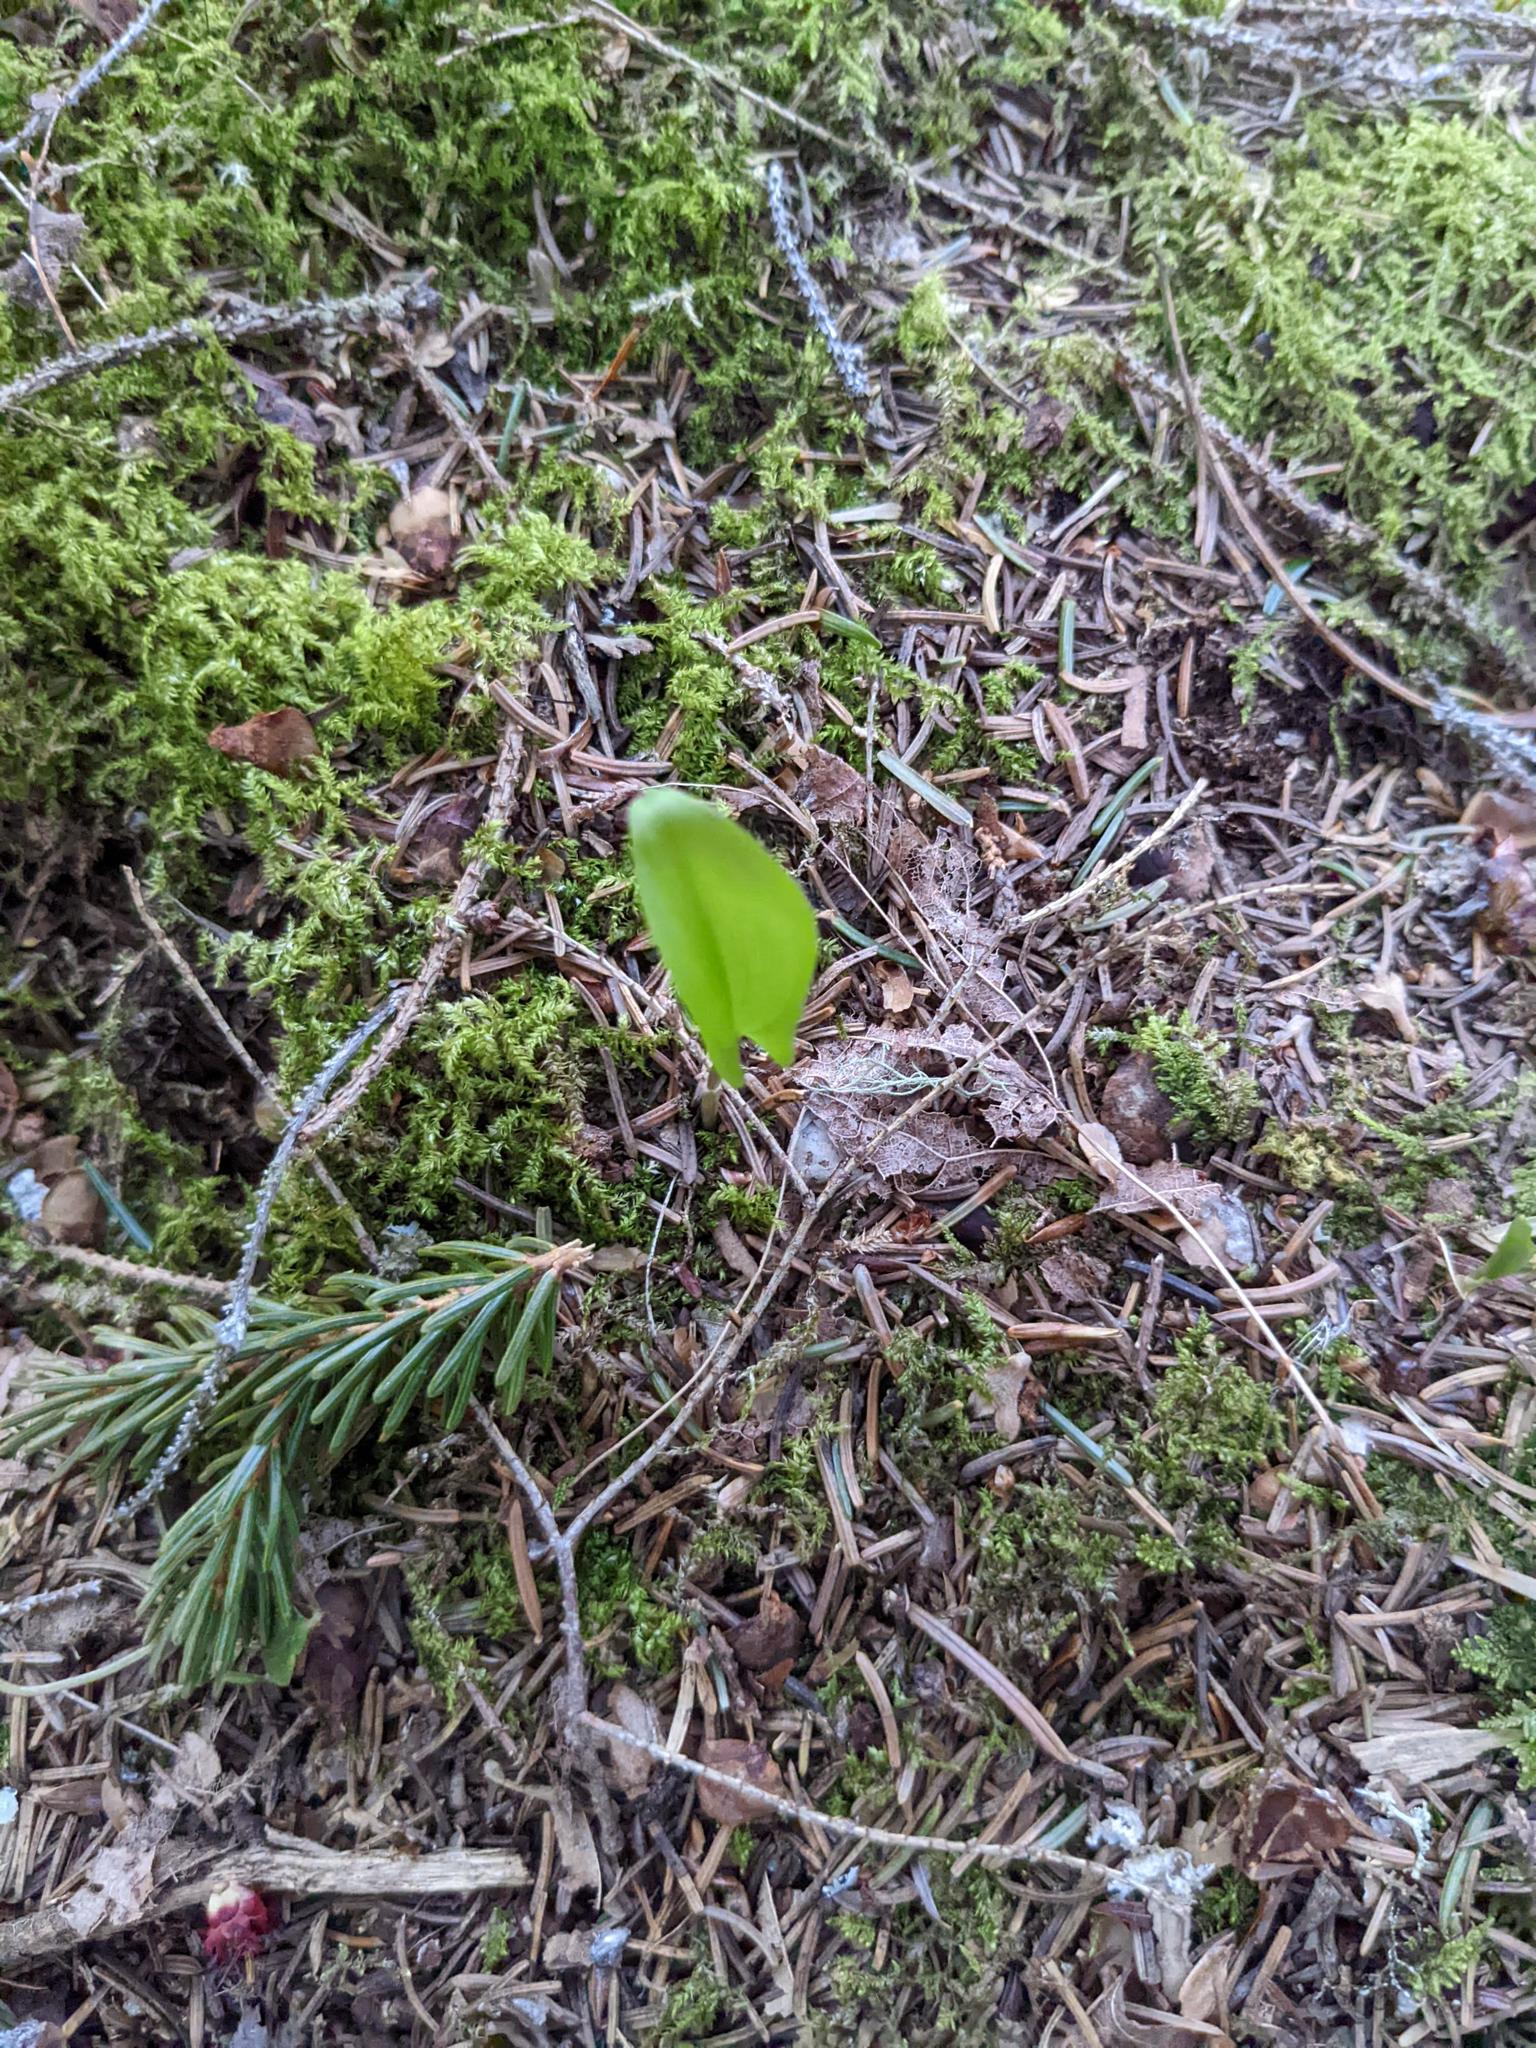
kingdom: Plantae
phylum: Tracheophyta
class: Liliopsida
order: Asparagales
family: Asparagaceae
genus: Maianthemum
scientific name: Maianthemum canadense
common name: False lily-of-the-valley
